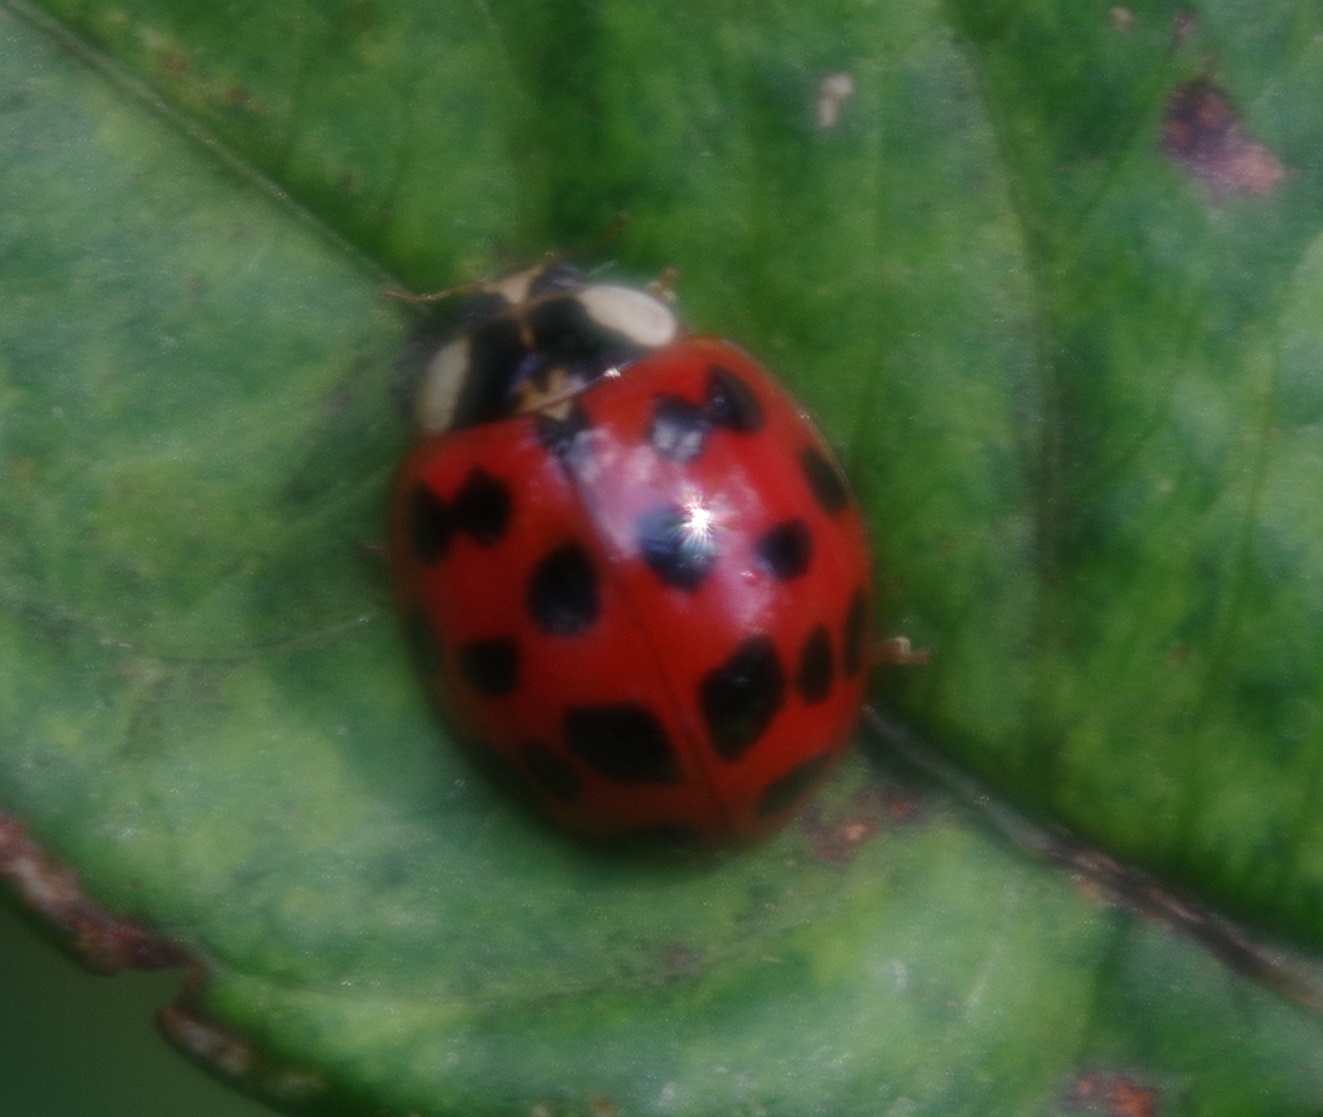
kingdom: Animalia
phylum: Arthropoda
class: Insecta
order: Coleoptera
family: Coccinellidae
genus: Harmonia
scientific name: Harmonia axyridis
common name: Harlequin ladybird
